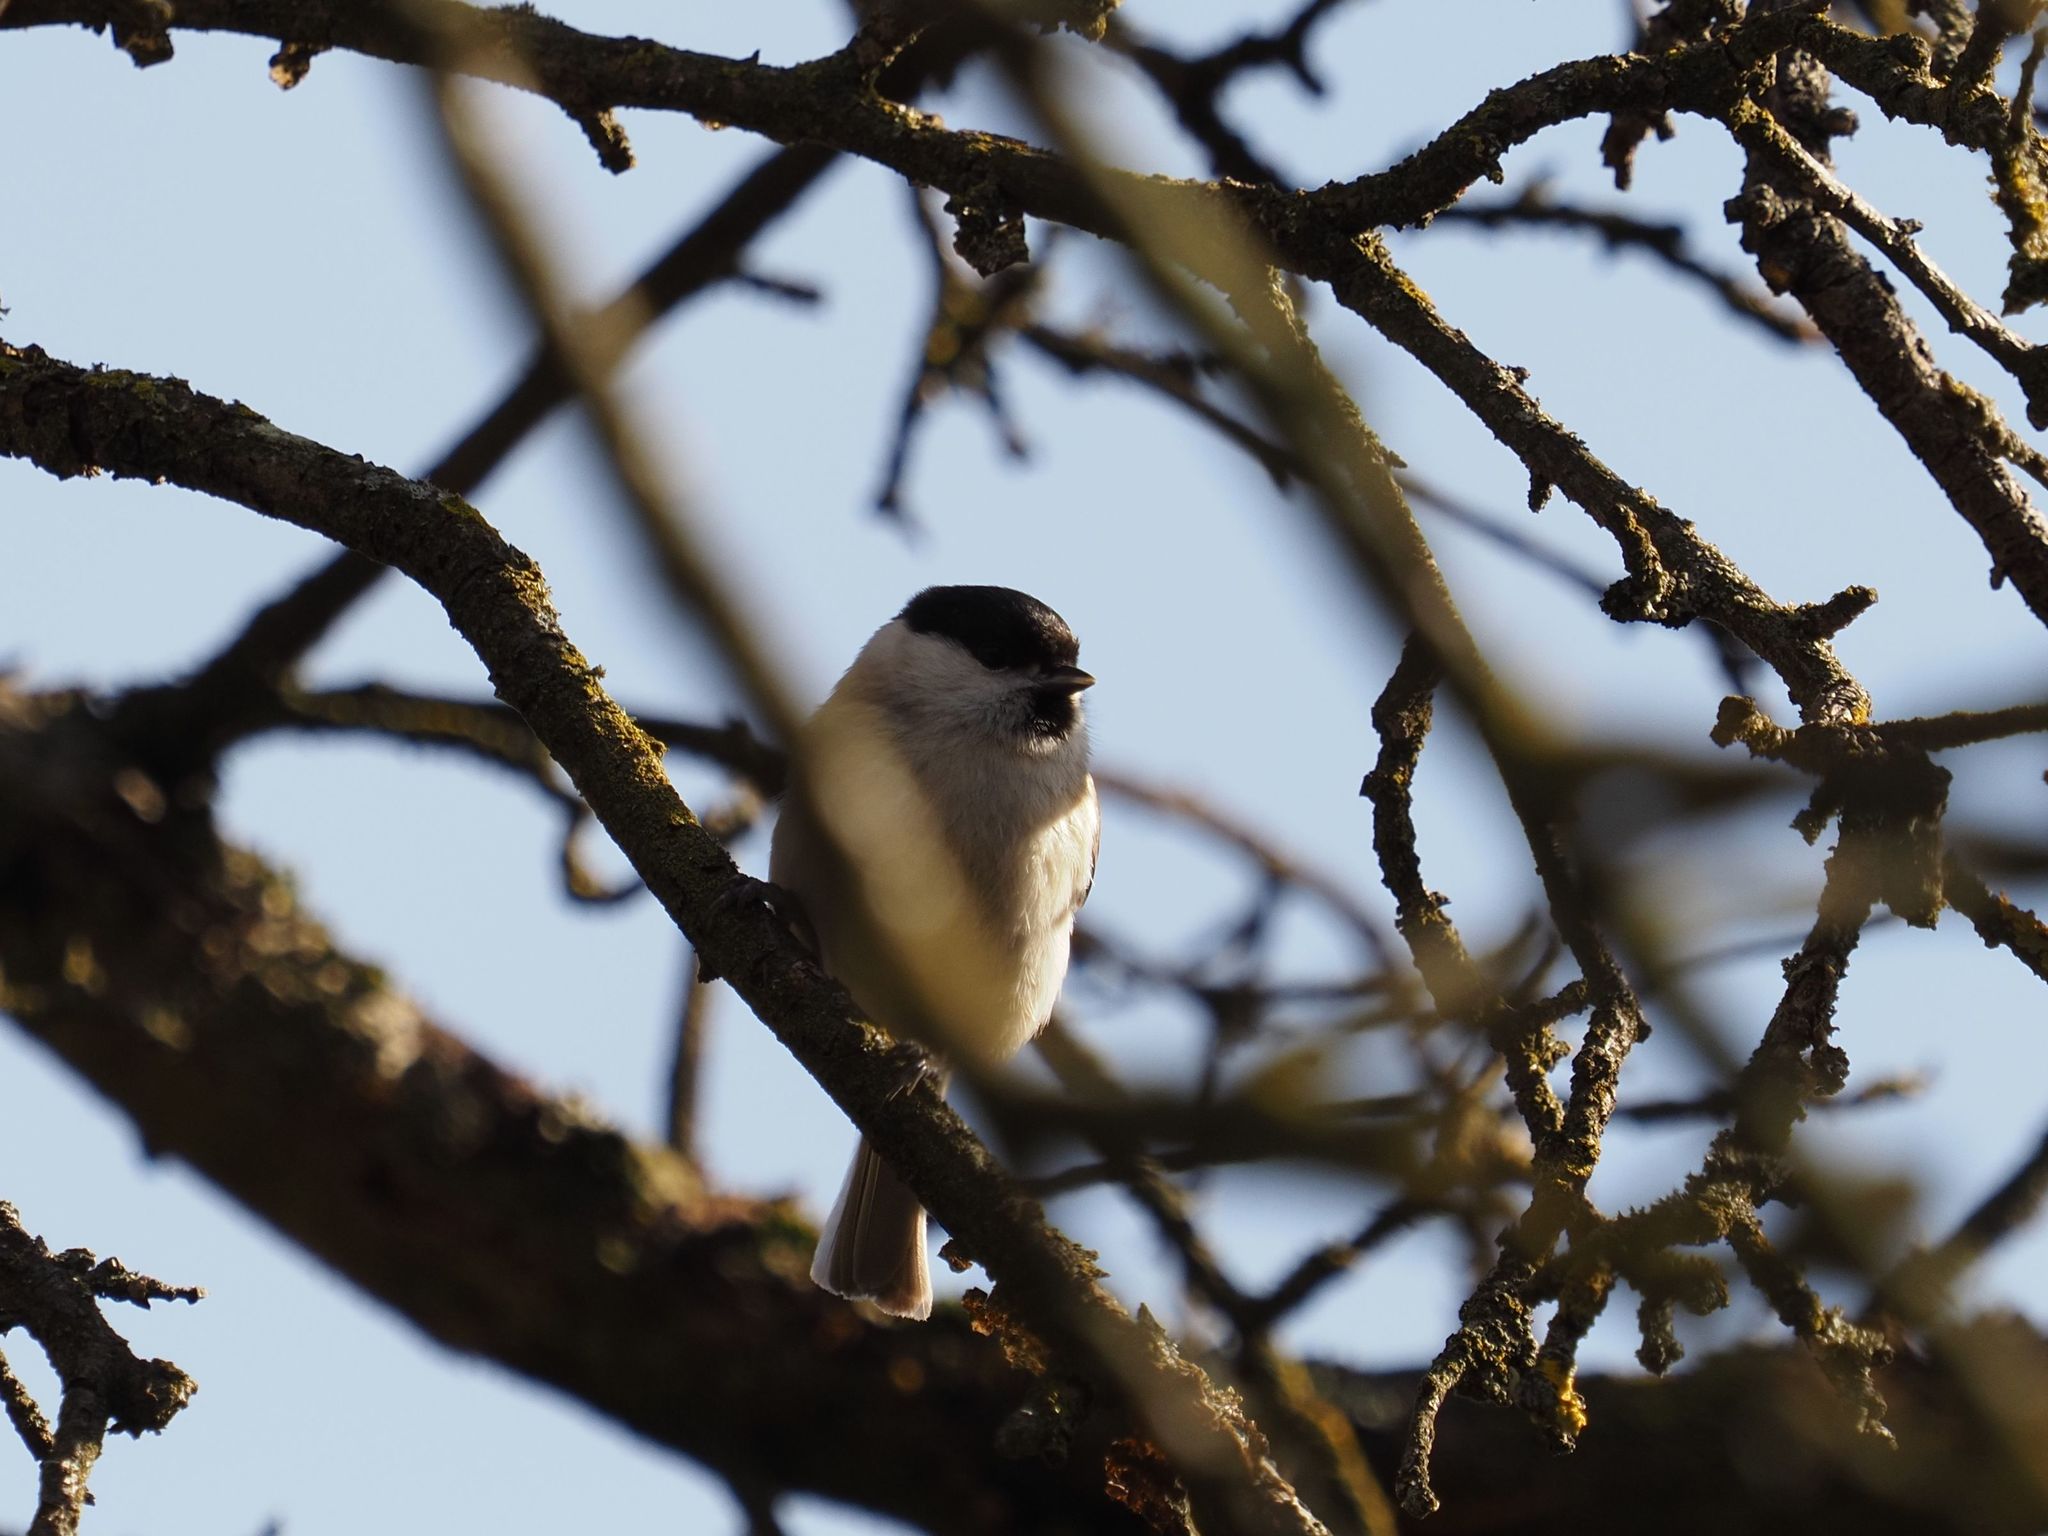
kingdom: Animalia
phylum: Chordata
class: Aves
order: Passeriformes
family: Paridae
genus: Poecile
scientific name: Poecile palustris
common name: Marsh tit
